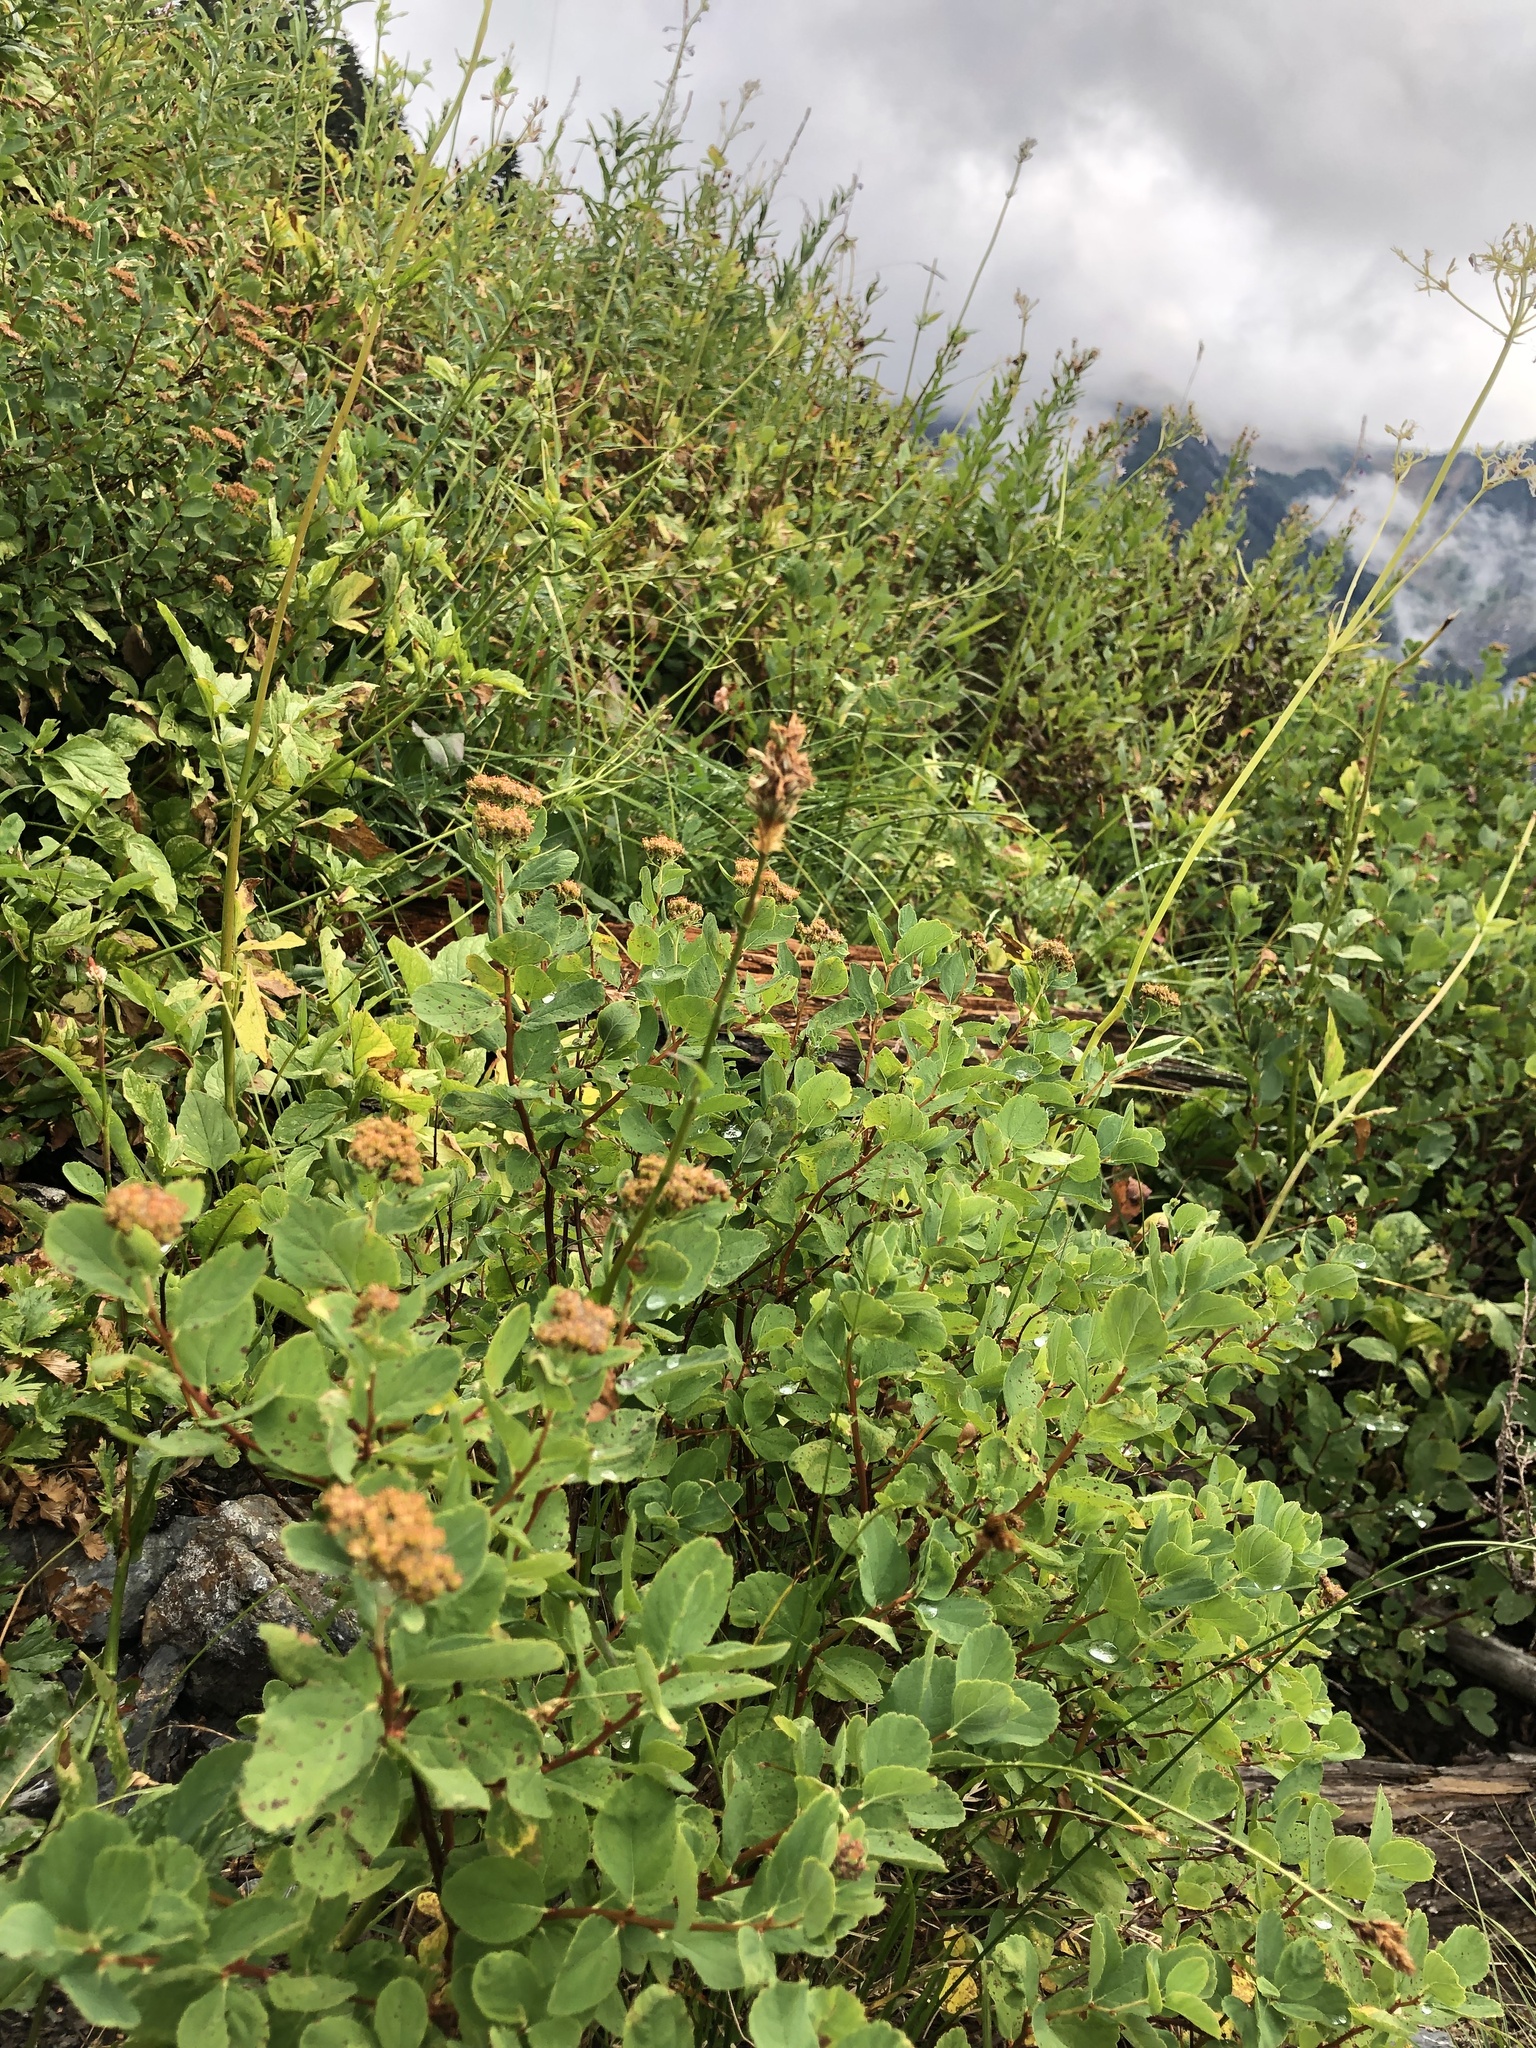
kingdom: Plantae
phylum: Tracheophyta
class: Magnoliopsida
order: Rosales
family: Rosaceae
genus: Spiraea
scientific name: Spiraea splendens
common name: Subalpine meadowsweet
